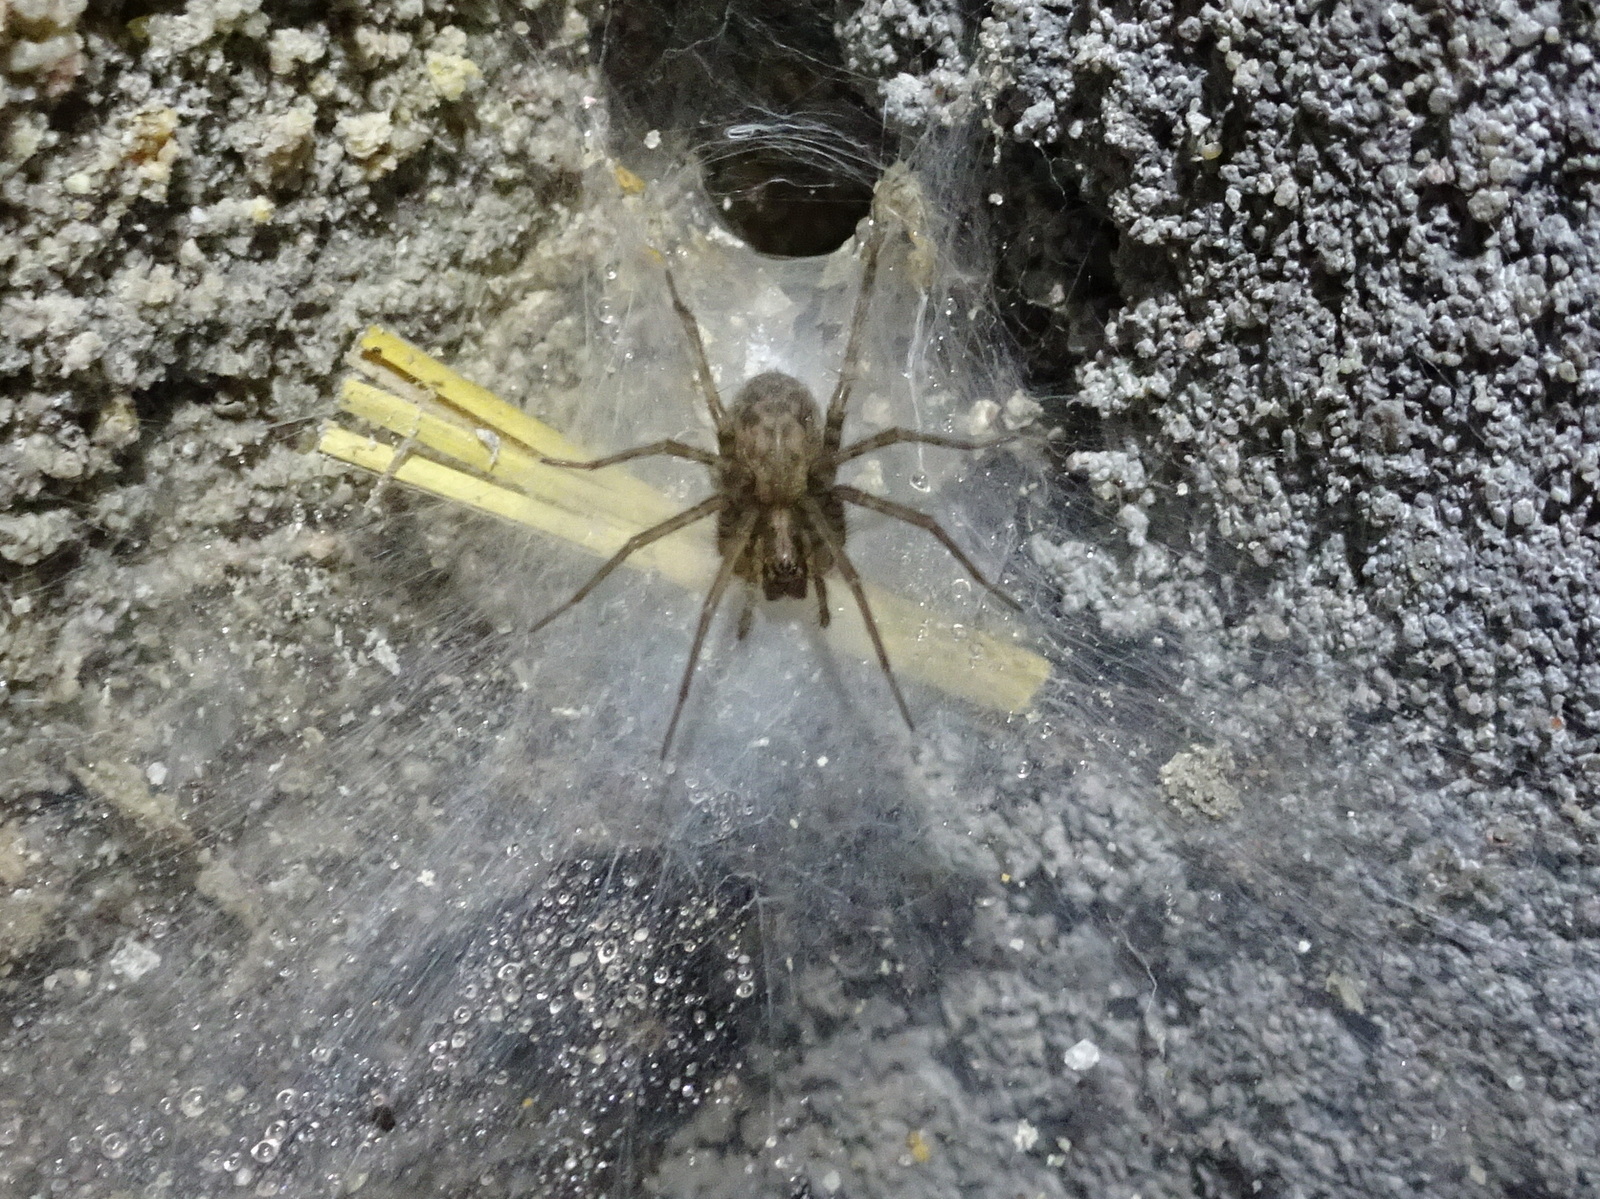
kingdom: Animalia
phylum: Arthropoda
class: Arachnida
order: Araneae
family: Agelenidae
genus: Tegenaria
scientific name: Tegenaria domestica
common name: Barn funnel weaver
